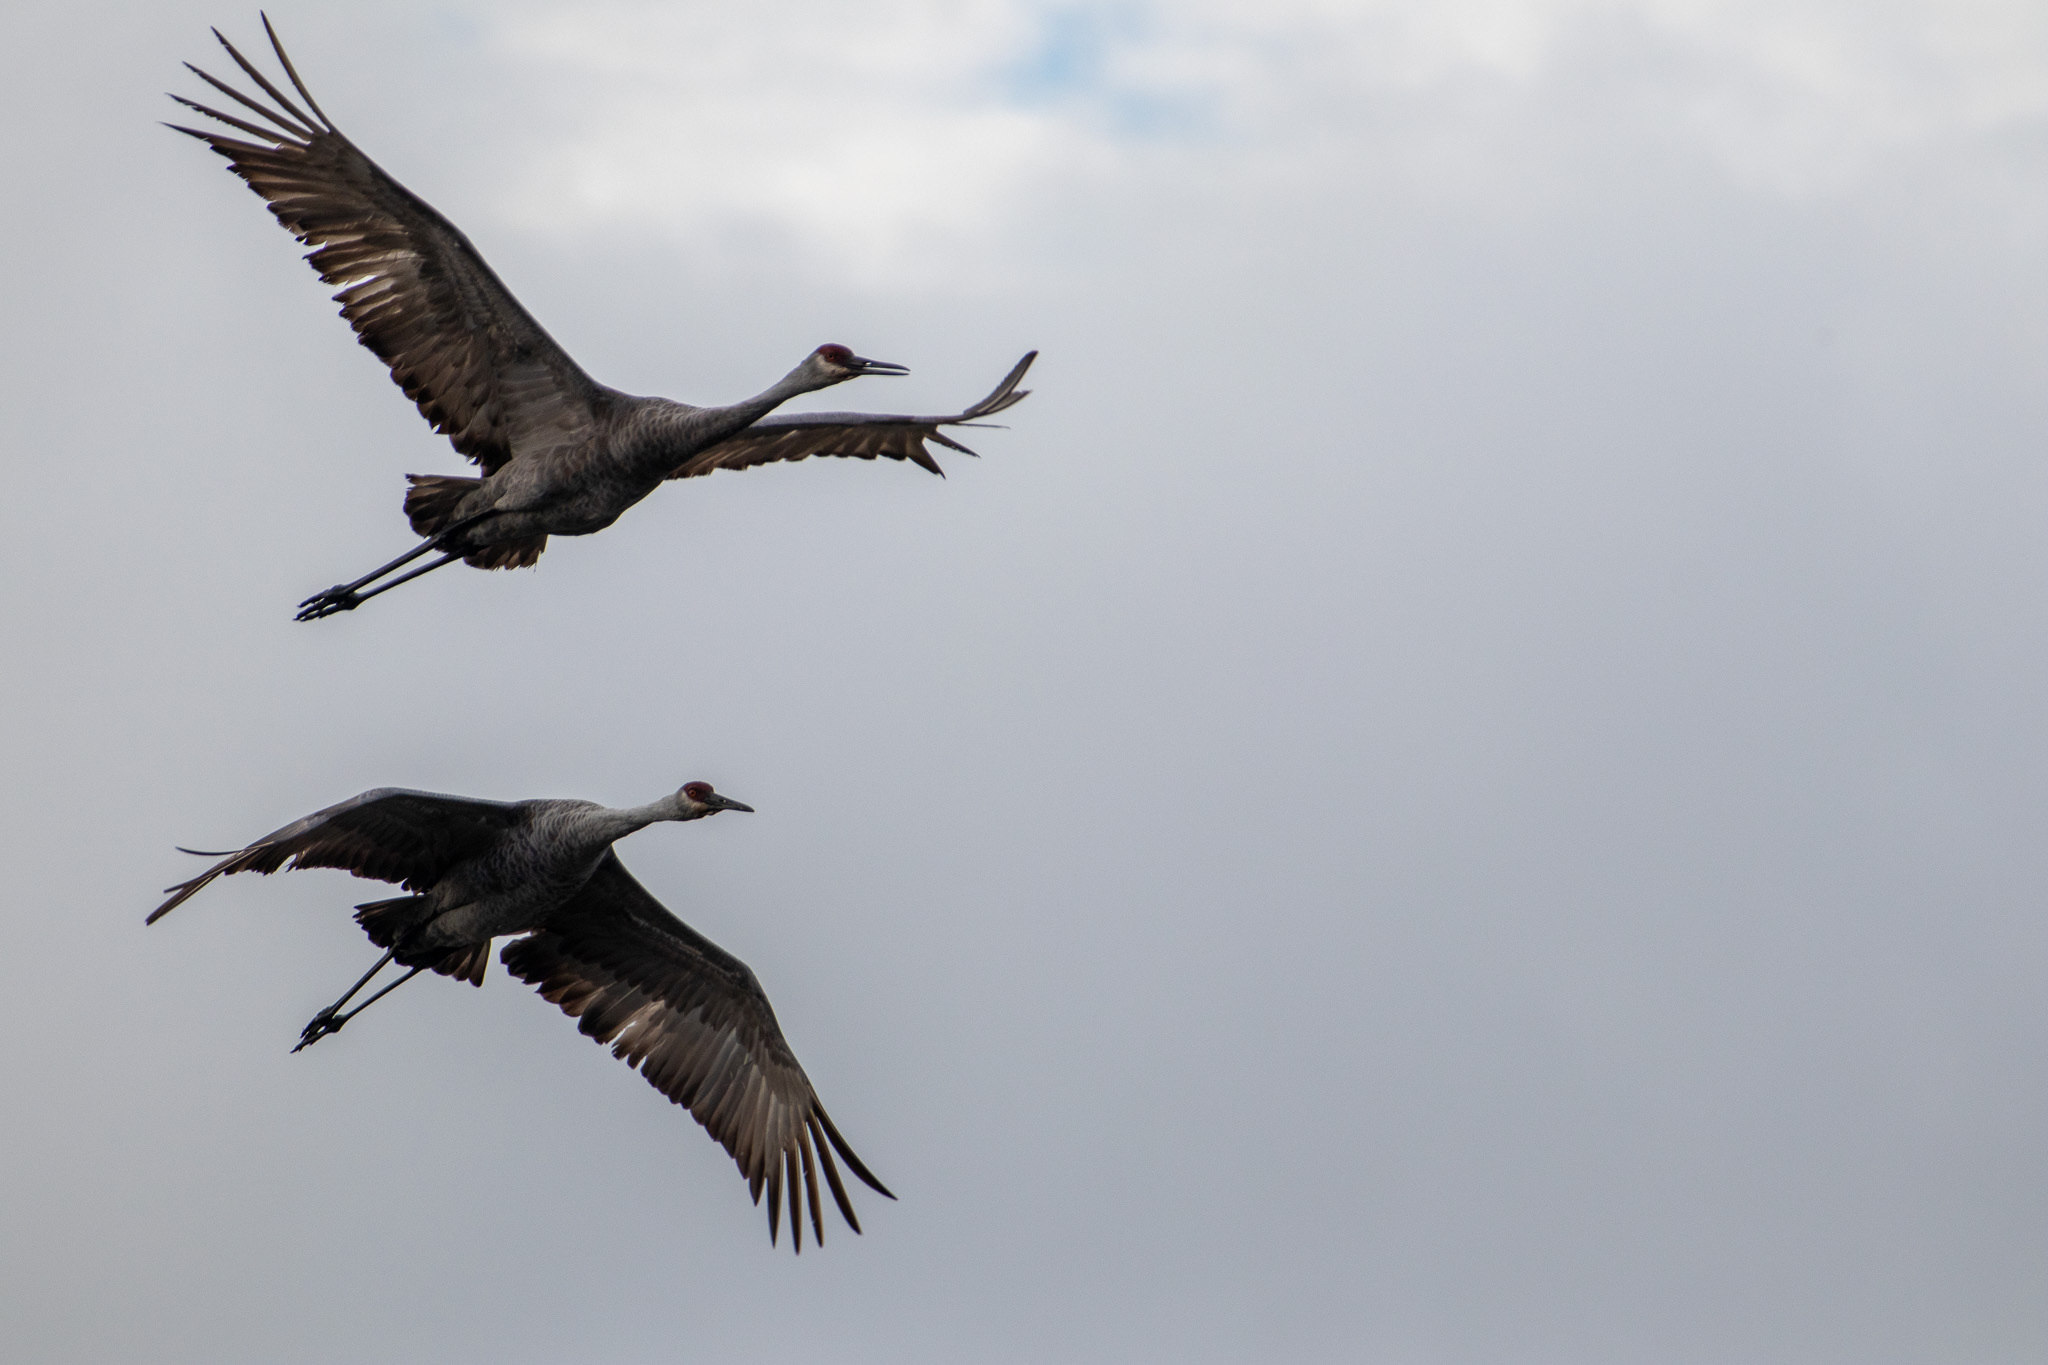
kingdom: Animalia
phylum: Chordata
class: Aves
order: Gruiformes
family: Gruidae
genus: Grus
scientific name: Grus canadensis
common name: Sandhill crane
